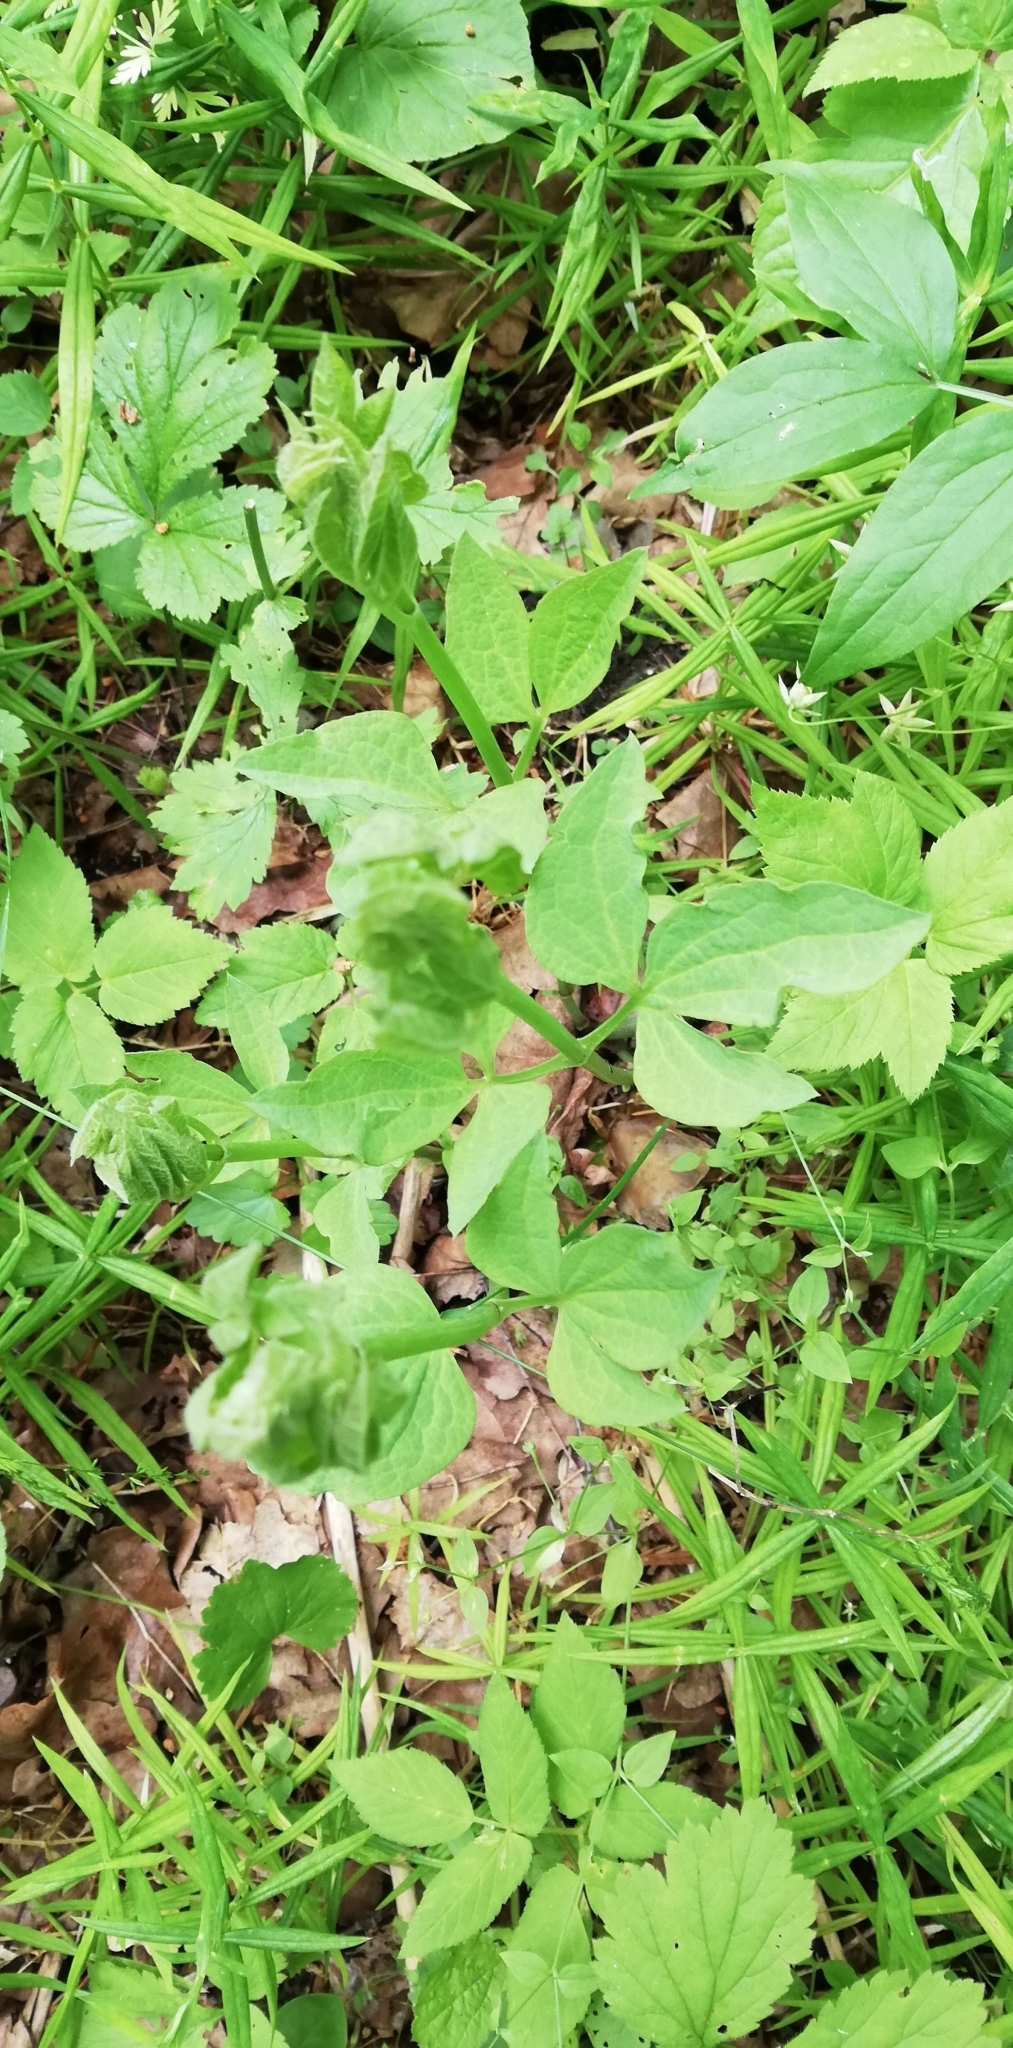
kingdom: Plantae
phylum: Tracheophyta
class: Magnoliopsida
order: Ranunculales
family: Ranunculaceae
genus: Clematis
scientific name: Clematis recta
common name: Ground clematis
